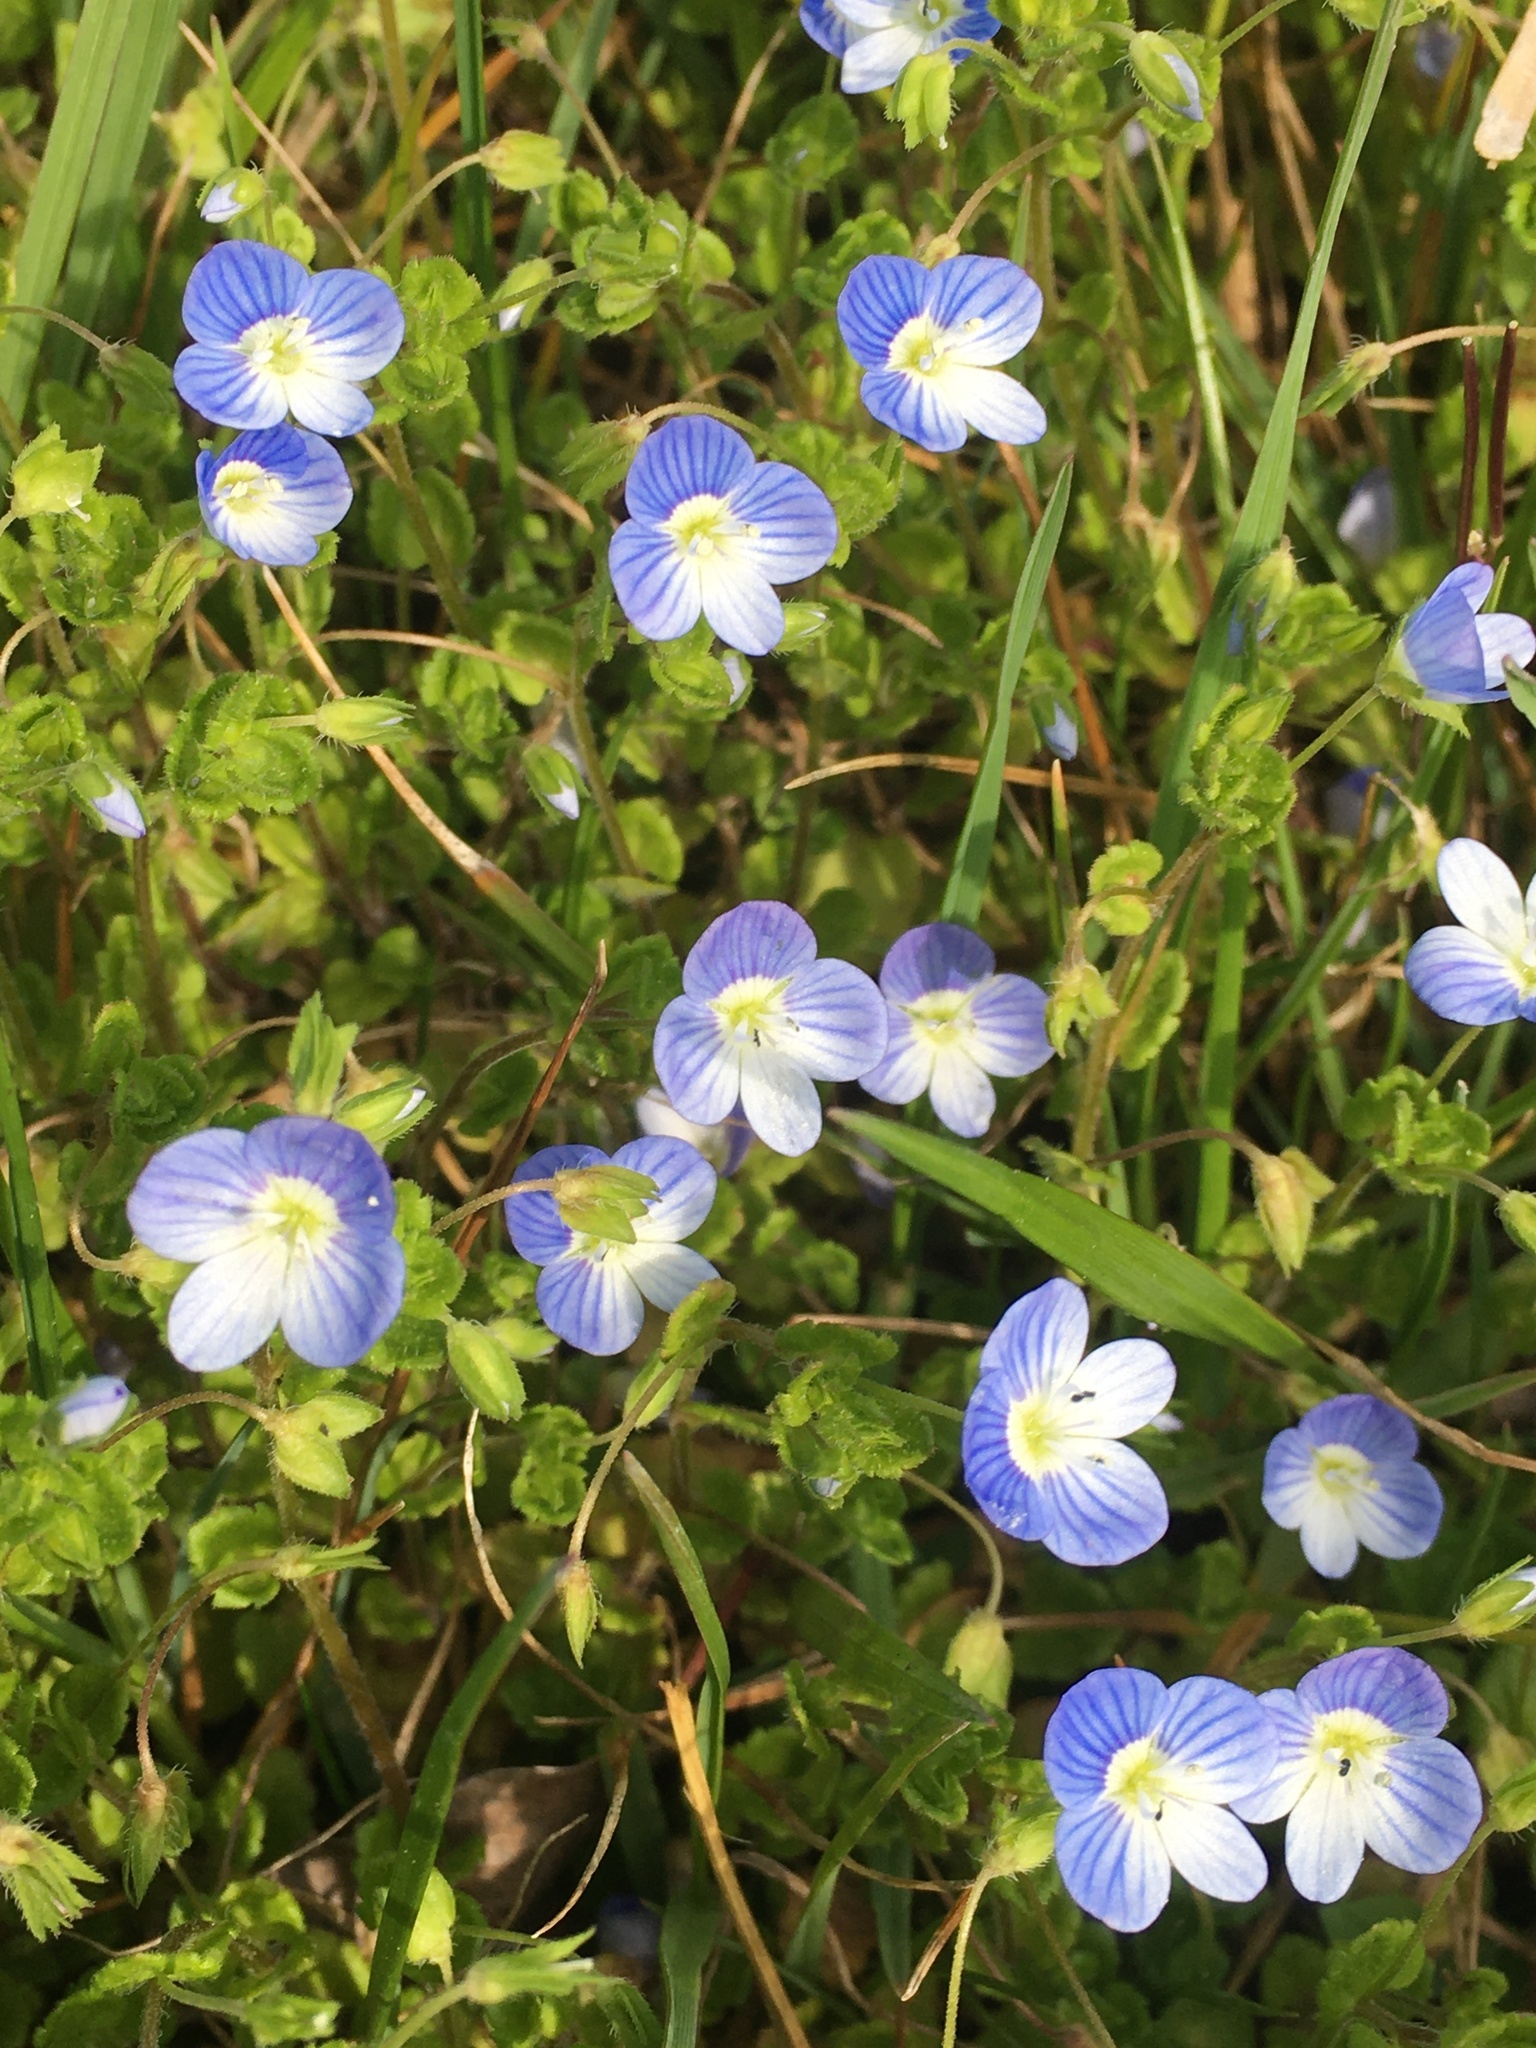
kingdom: Plantae
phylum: Tracheophyta
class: Magnoliopsida
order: Lamiales
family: Plantaginaceae
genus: Veronica
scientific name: Veronica persica
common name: Common field-speedwell
